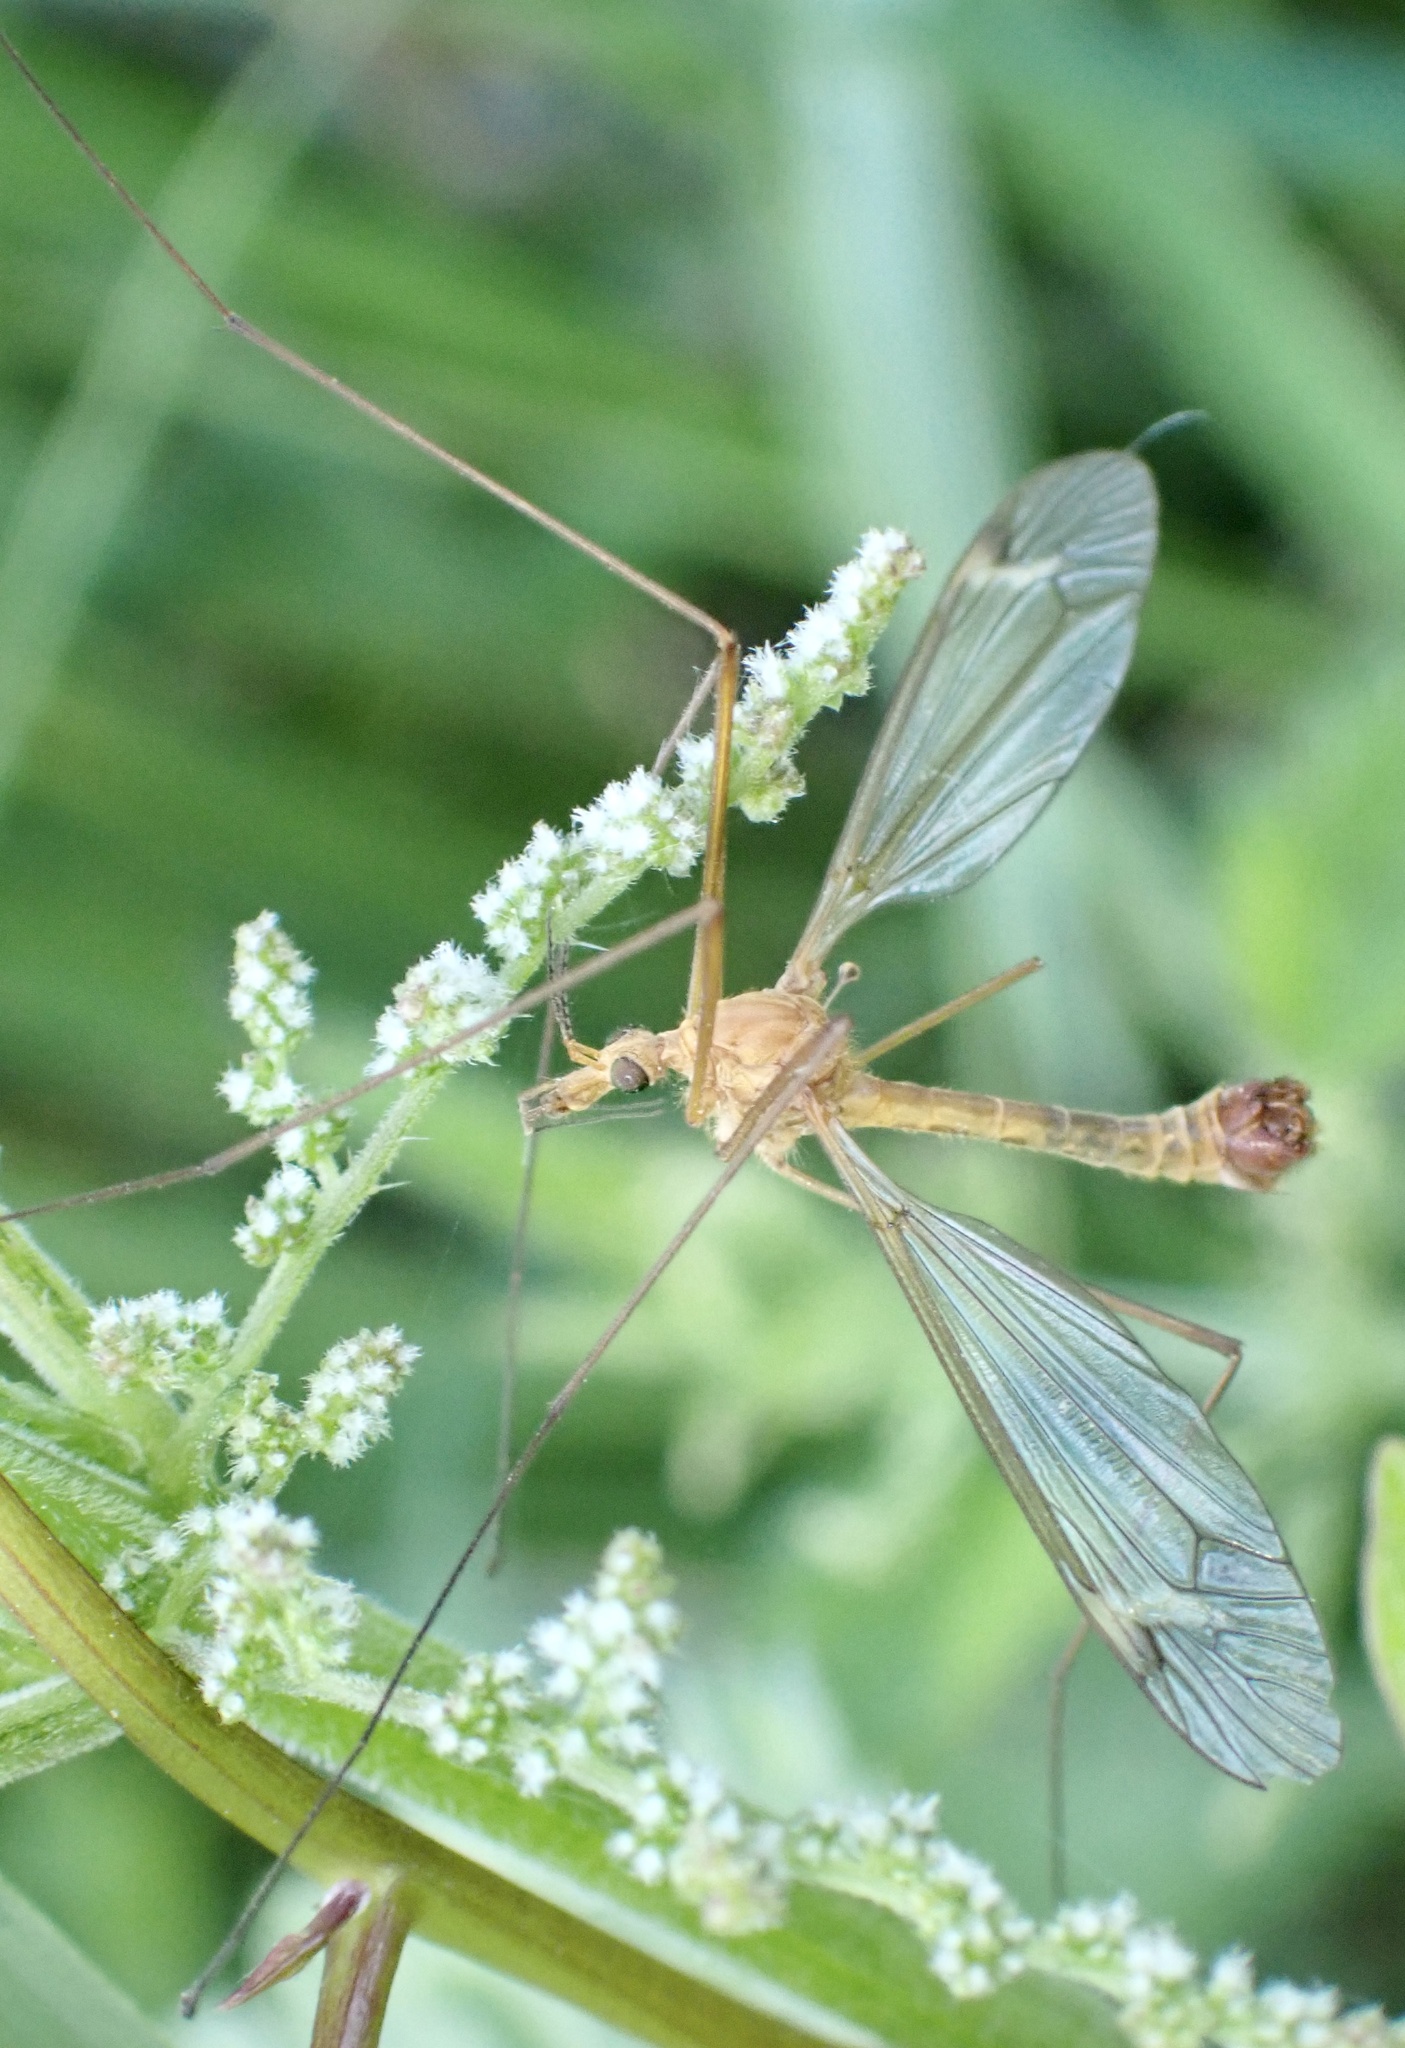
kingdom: Animalia
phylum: Arthropoda
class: Insecta
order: Diptera
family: Tipulidae
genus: Tipula
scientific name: Tipula lunata
